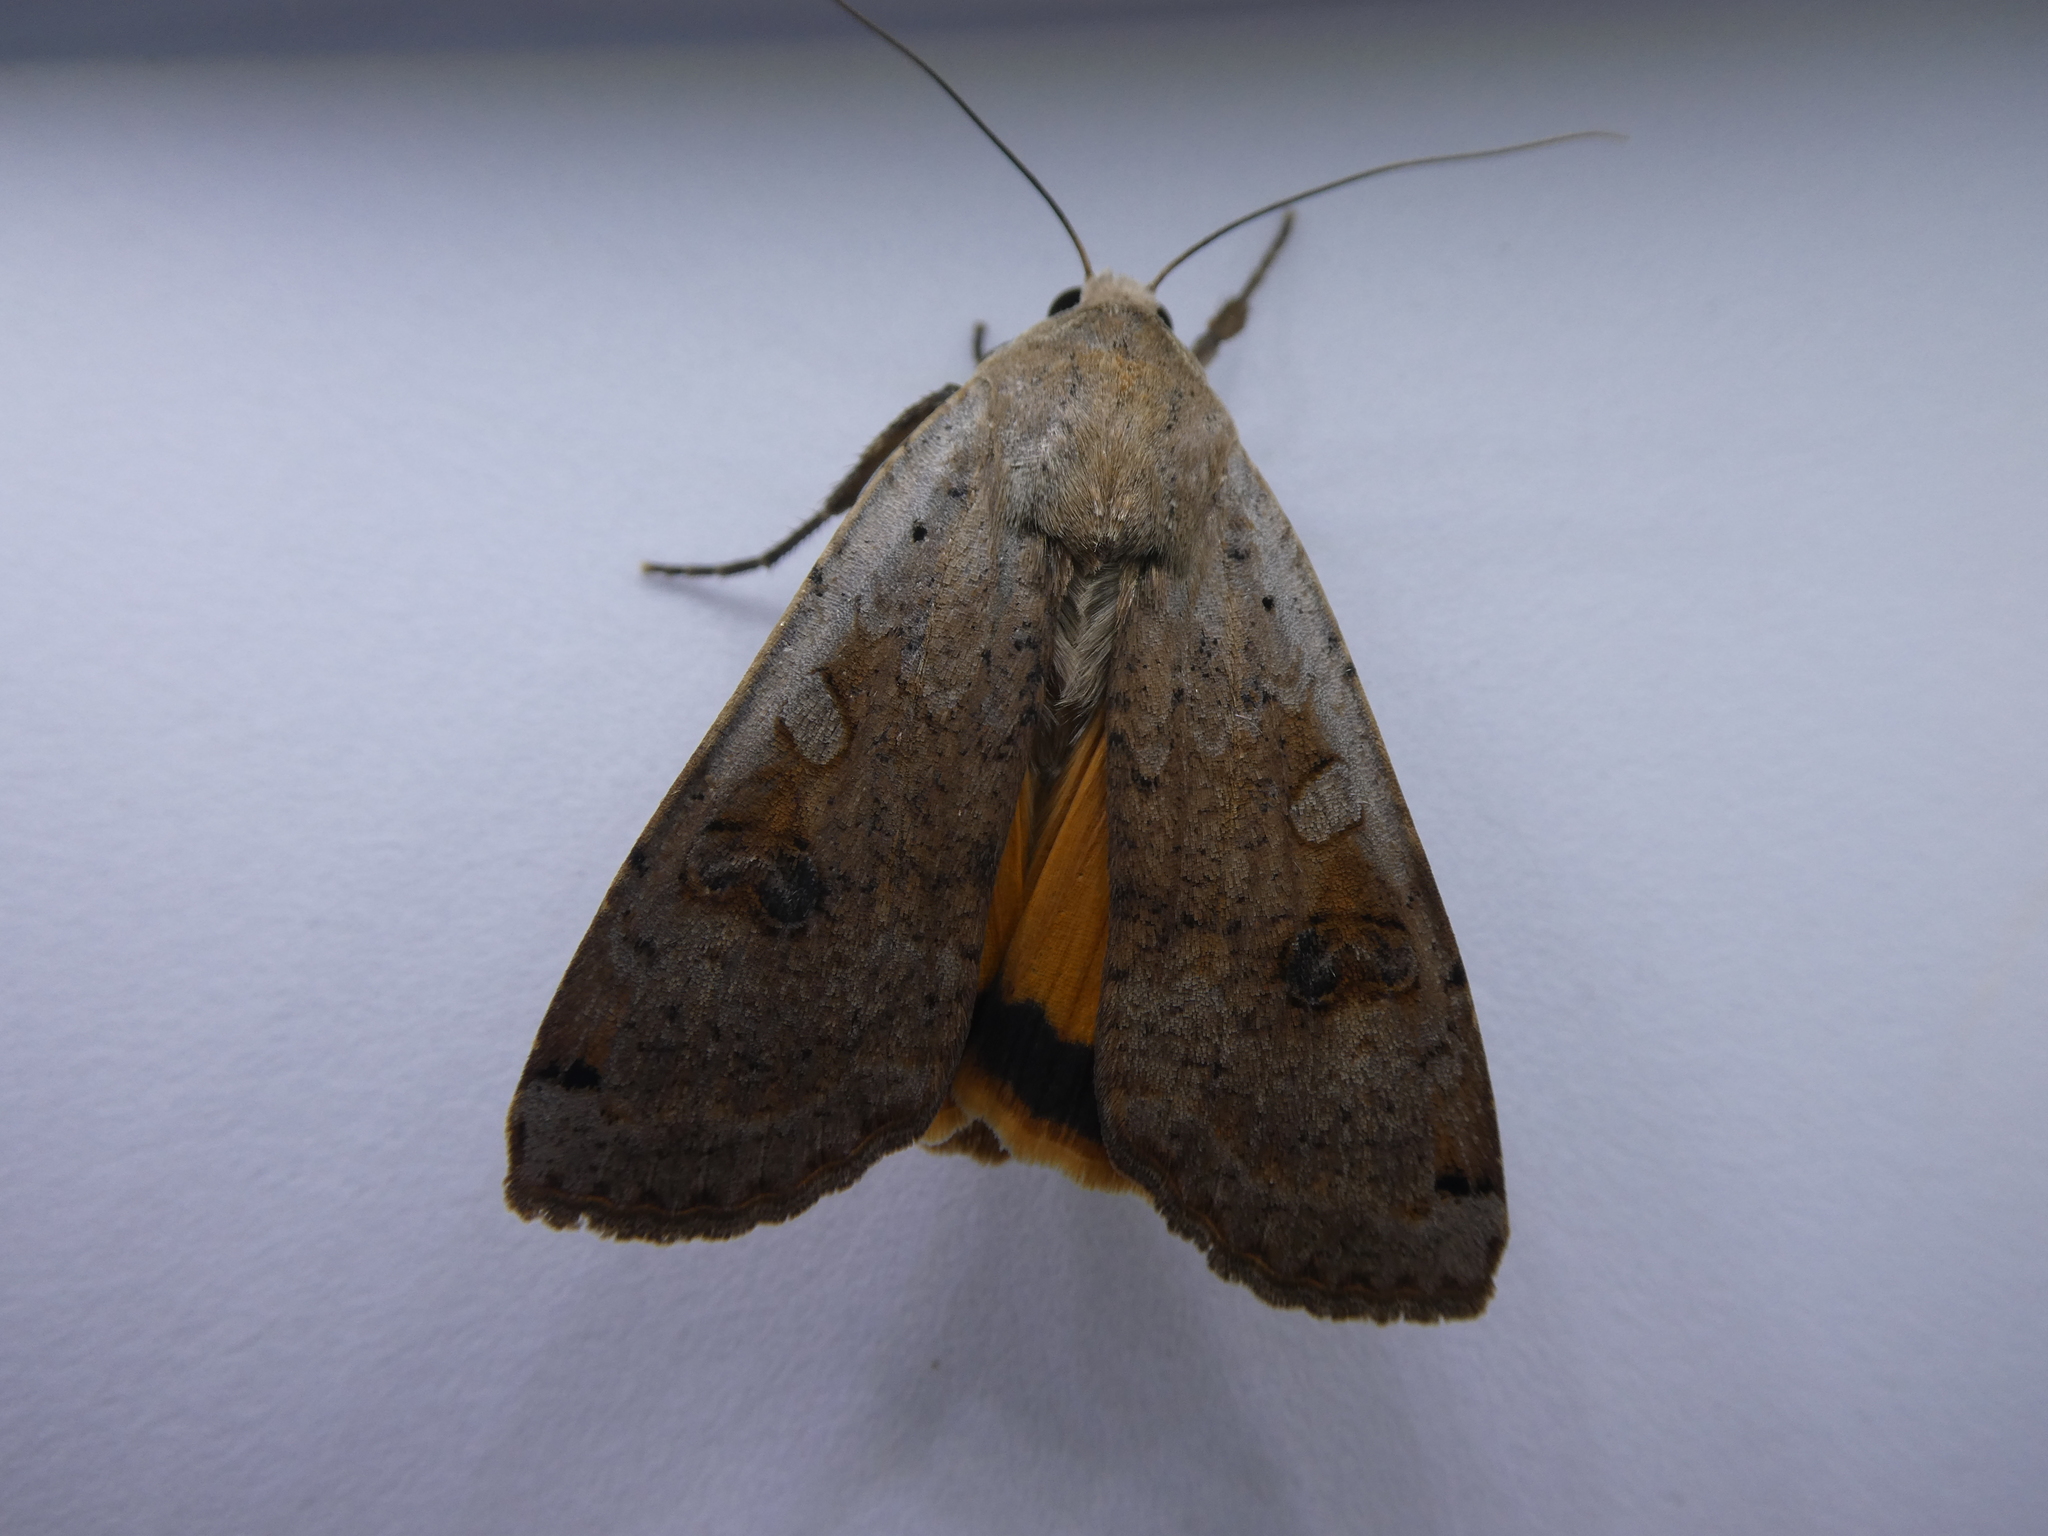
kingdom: Animalia
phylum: Arthropoda
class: Insecta
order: Lepidoptera
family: Noctuidae
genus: Noctua
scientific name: Noctua pronuba
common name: Large yellow underwing
